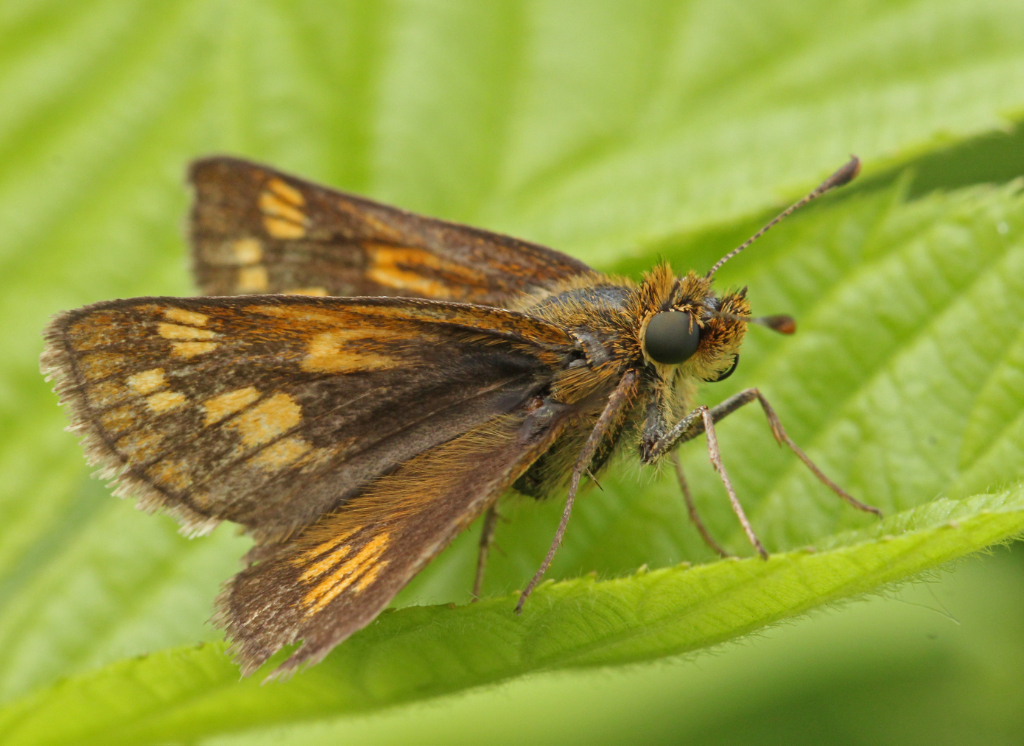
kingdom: Animalia
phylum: Arthropoda
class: Insecta
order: Lepidoptera
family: Hesperiidae
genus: Polites
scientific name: Polites coras
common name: Peck's skipper
